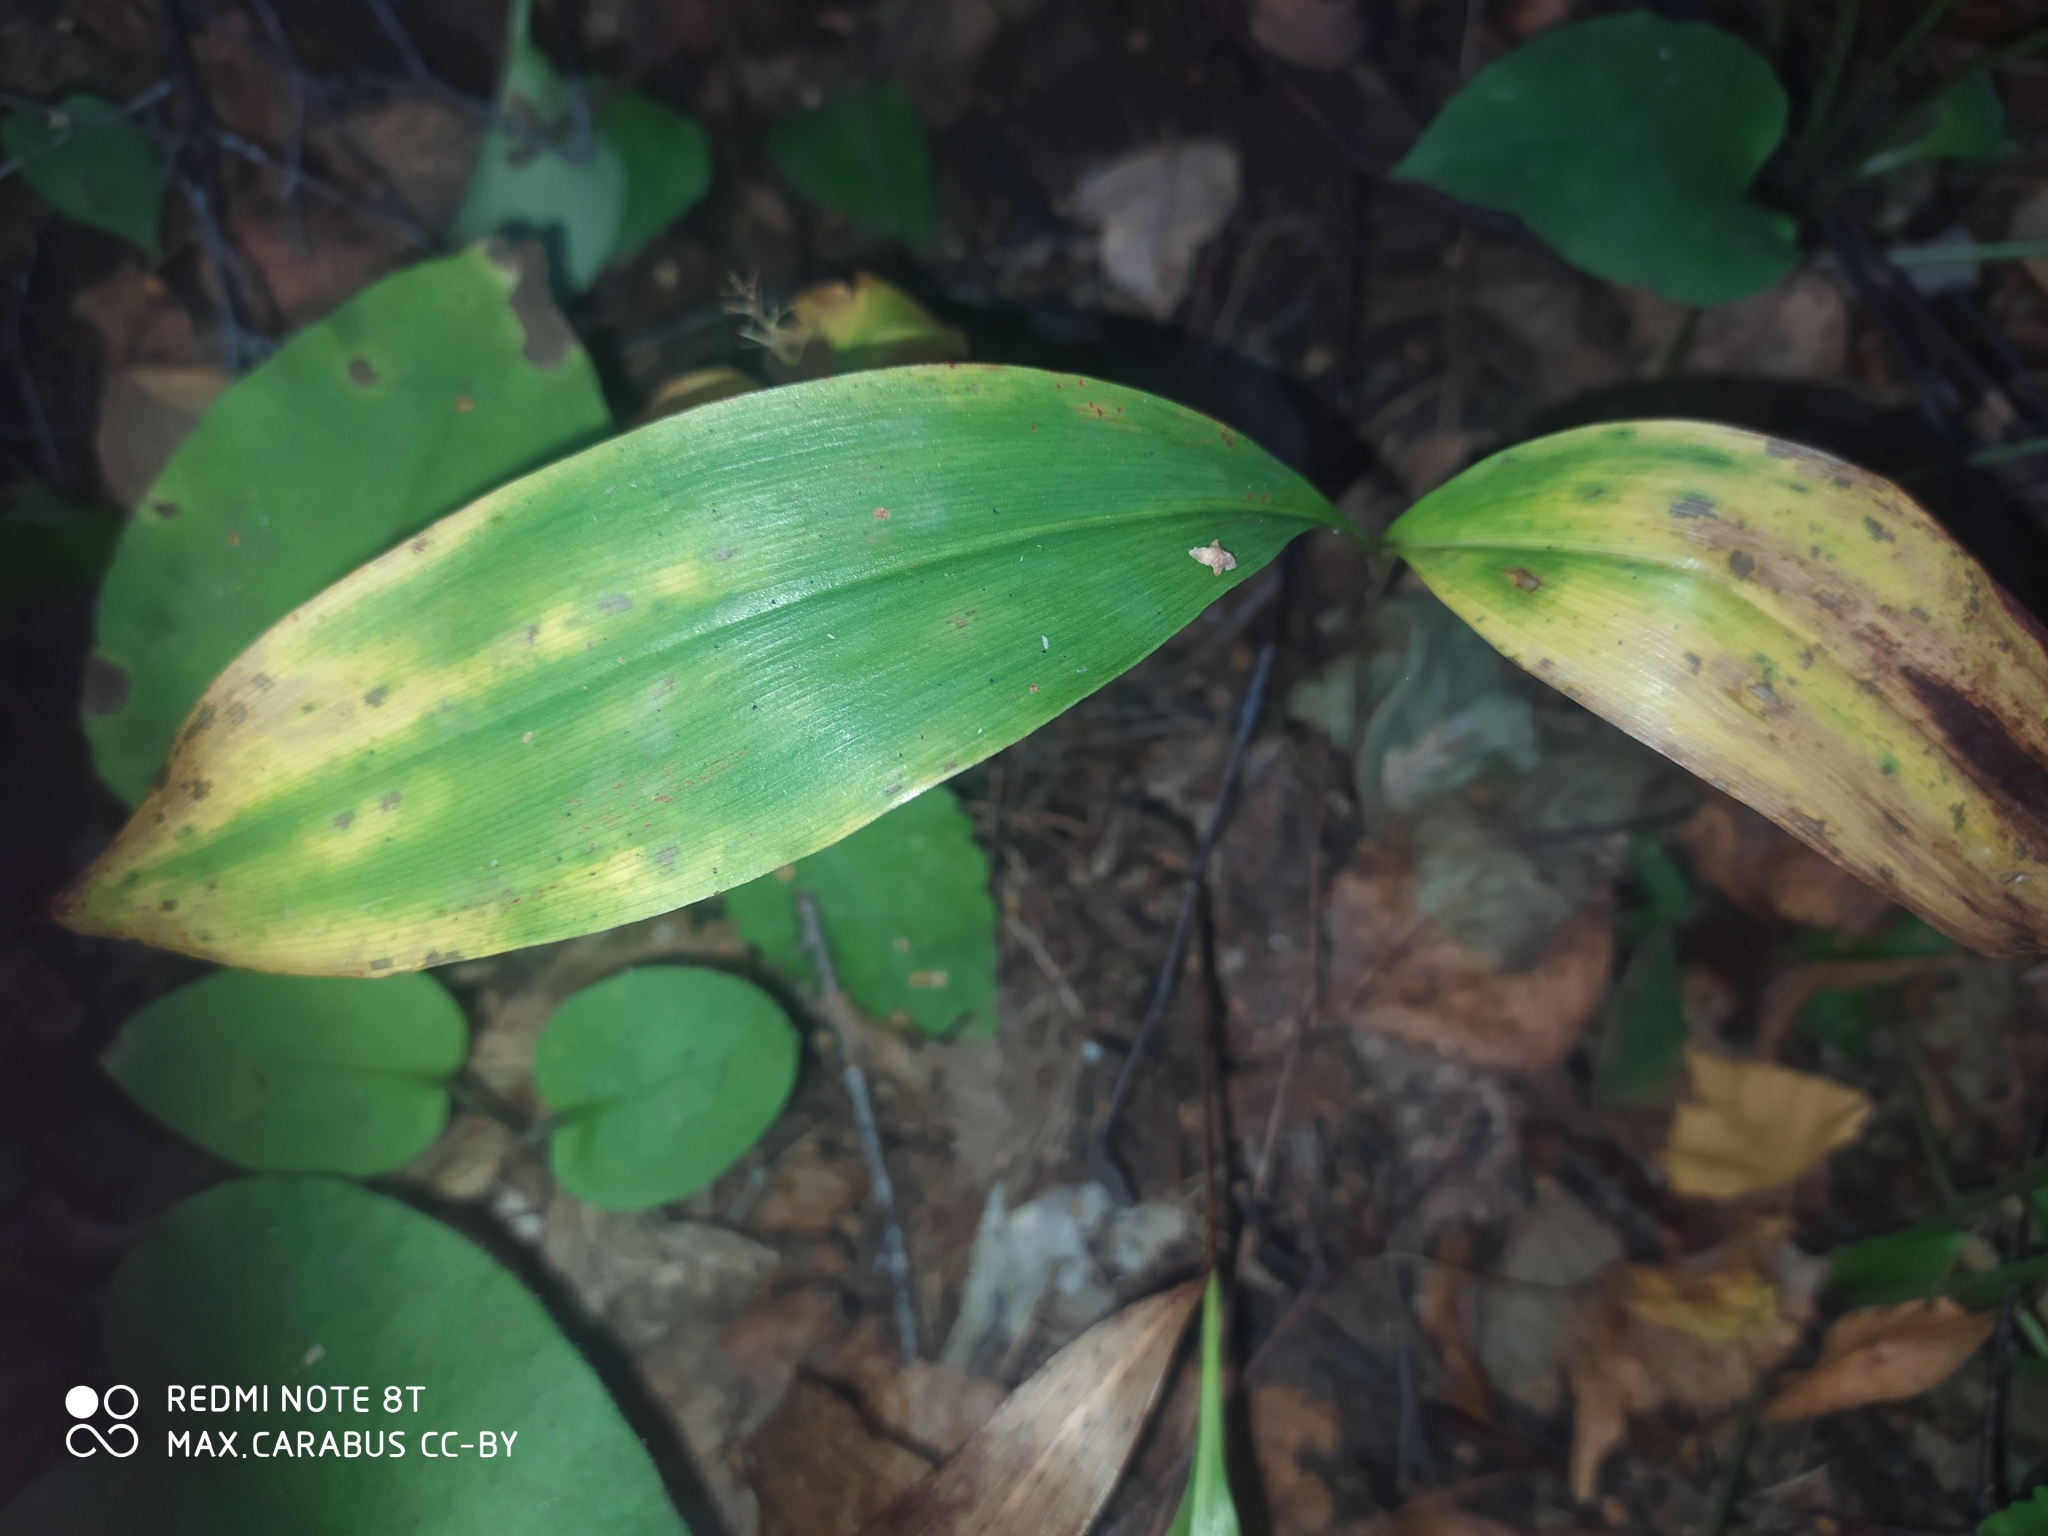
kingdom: Plantae
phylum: Tracheophyta
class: Liliopsida
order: Asparagales
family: Asparagaceae
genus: Convallaria
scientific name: Convallaria majalis
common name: Lily-of-the-valley
